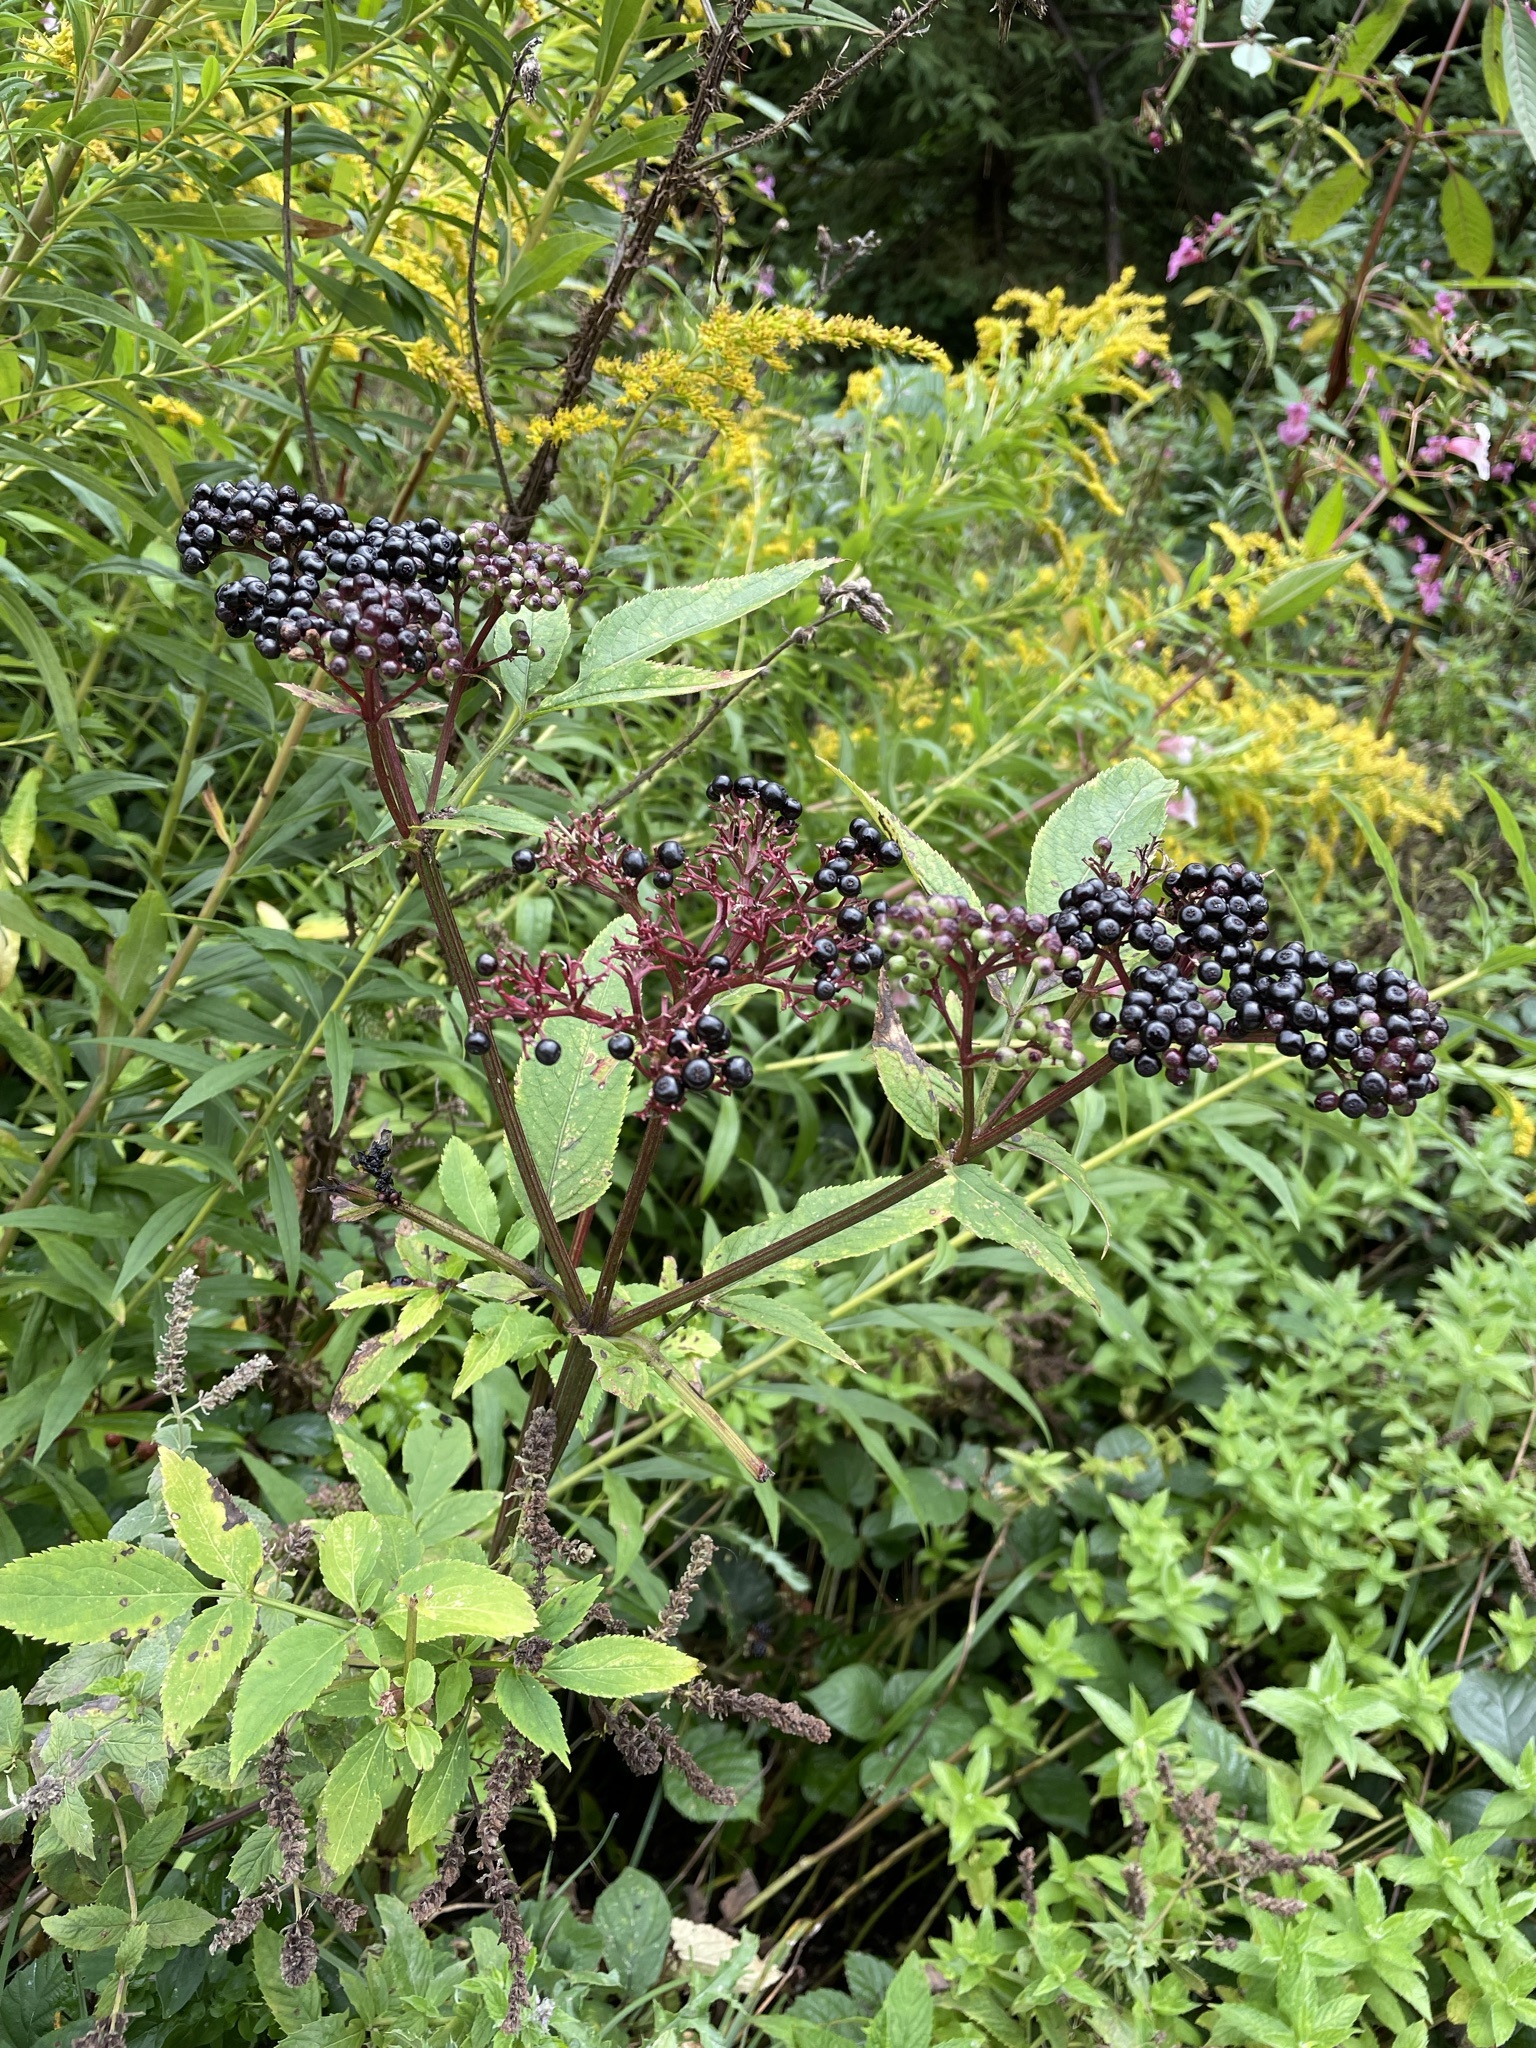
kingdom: Plantae
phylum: Tracheophyta
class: Magnoliopsida
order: Dipsacales
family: Viburnaceae
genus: Sambucus
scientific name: Sambucus ebulus
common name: Dwarf elder
